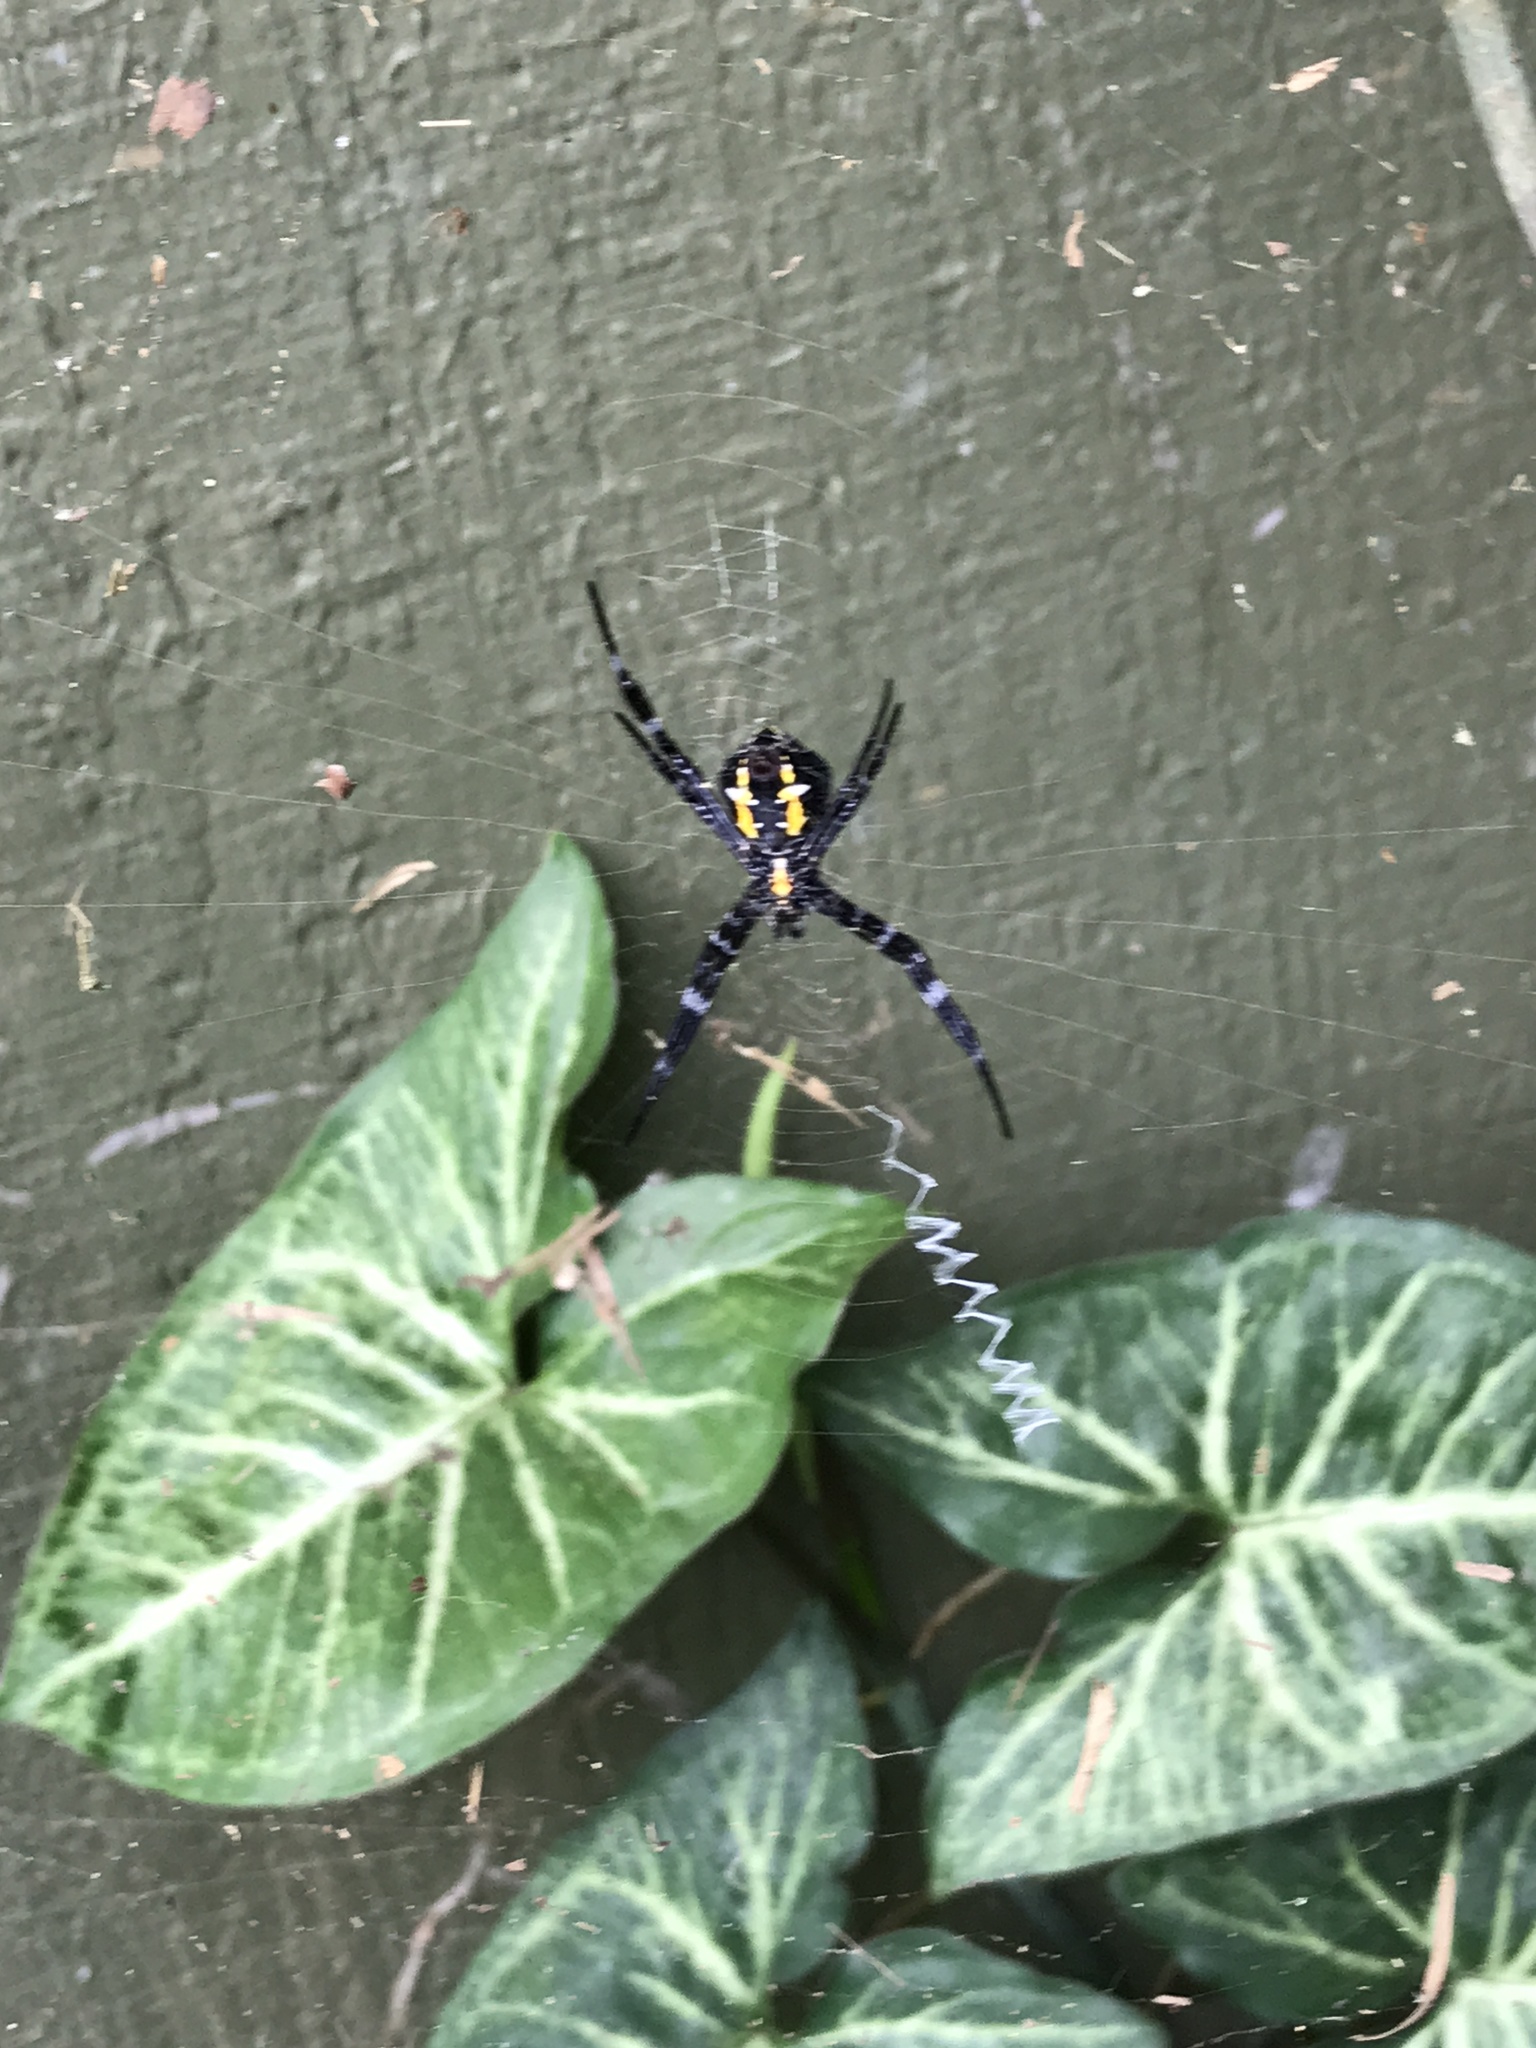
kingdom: Animalia
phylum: Arthropoda
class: Arachnida
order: Araneae
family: Araneidae
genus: Argiope
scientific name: Argiope appensa
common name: Garden spider
